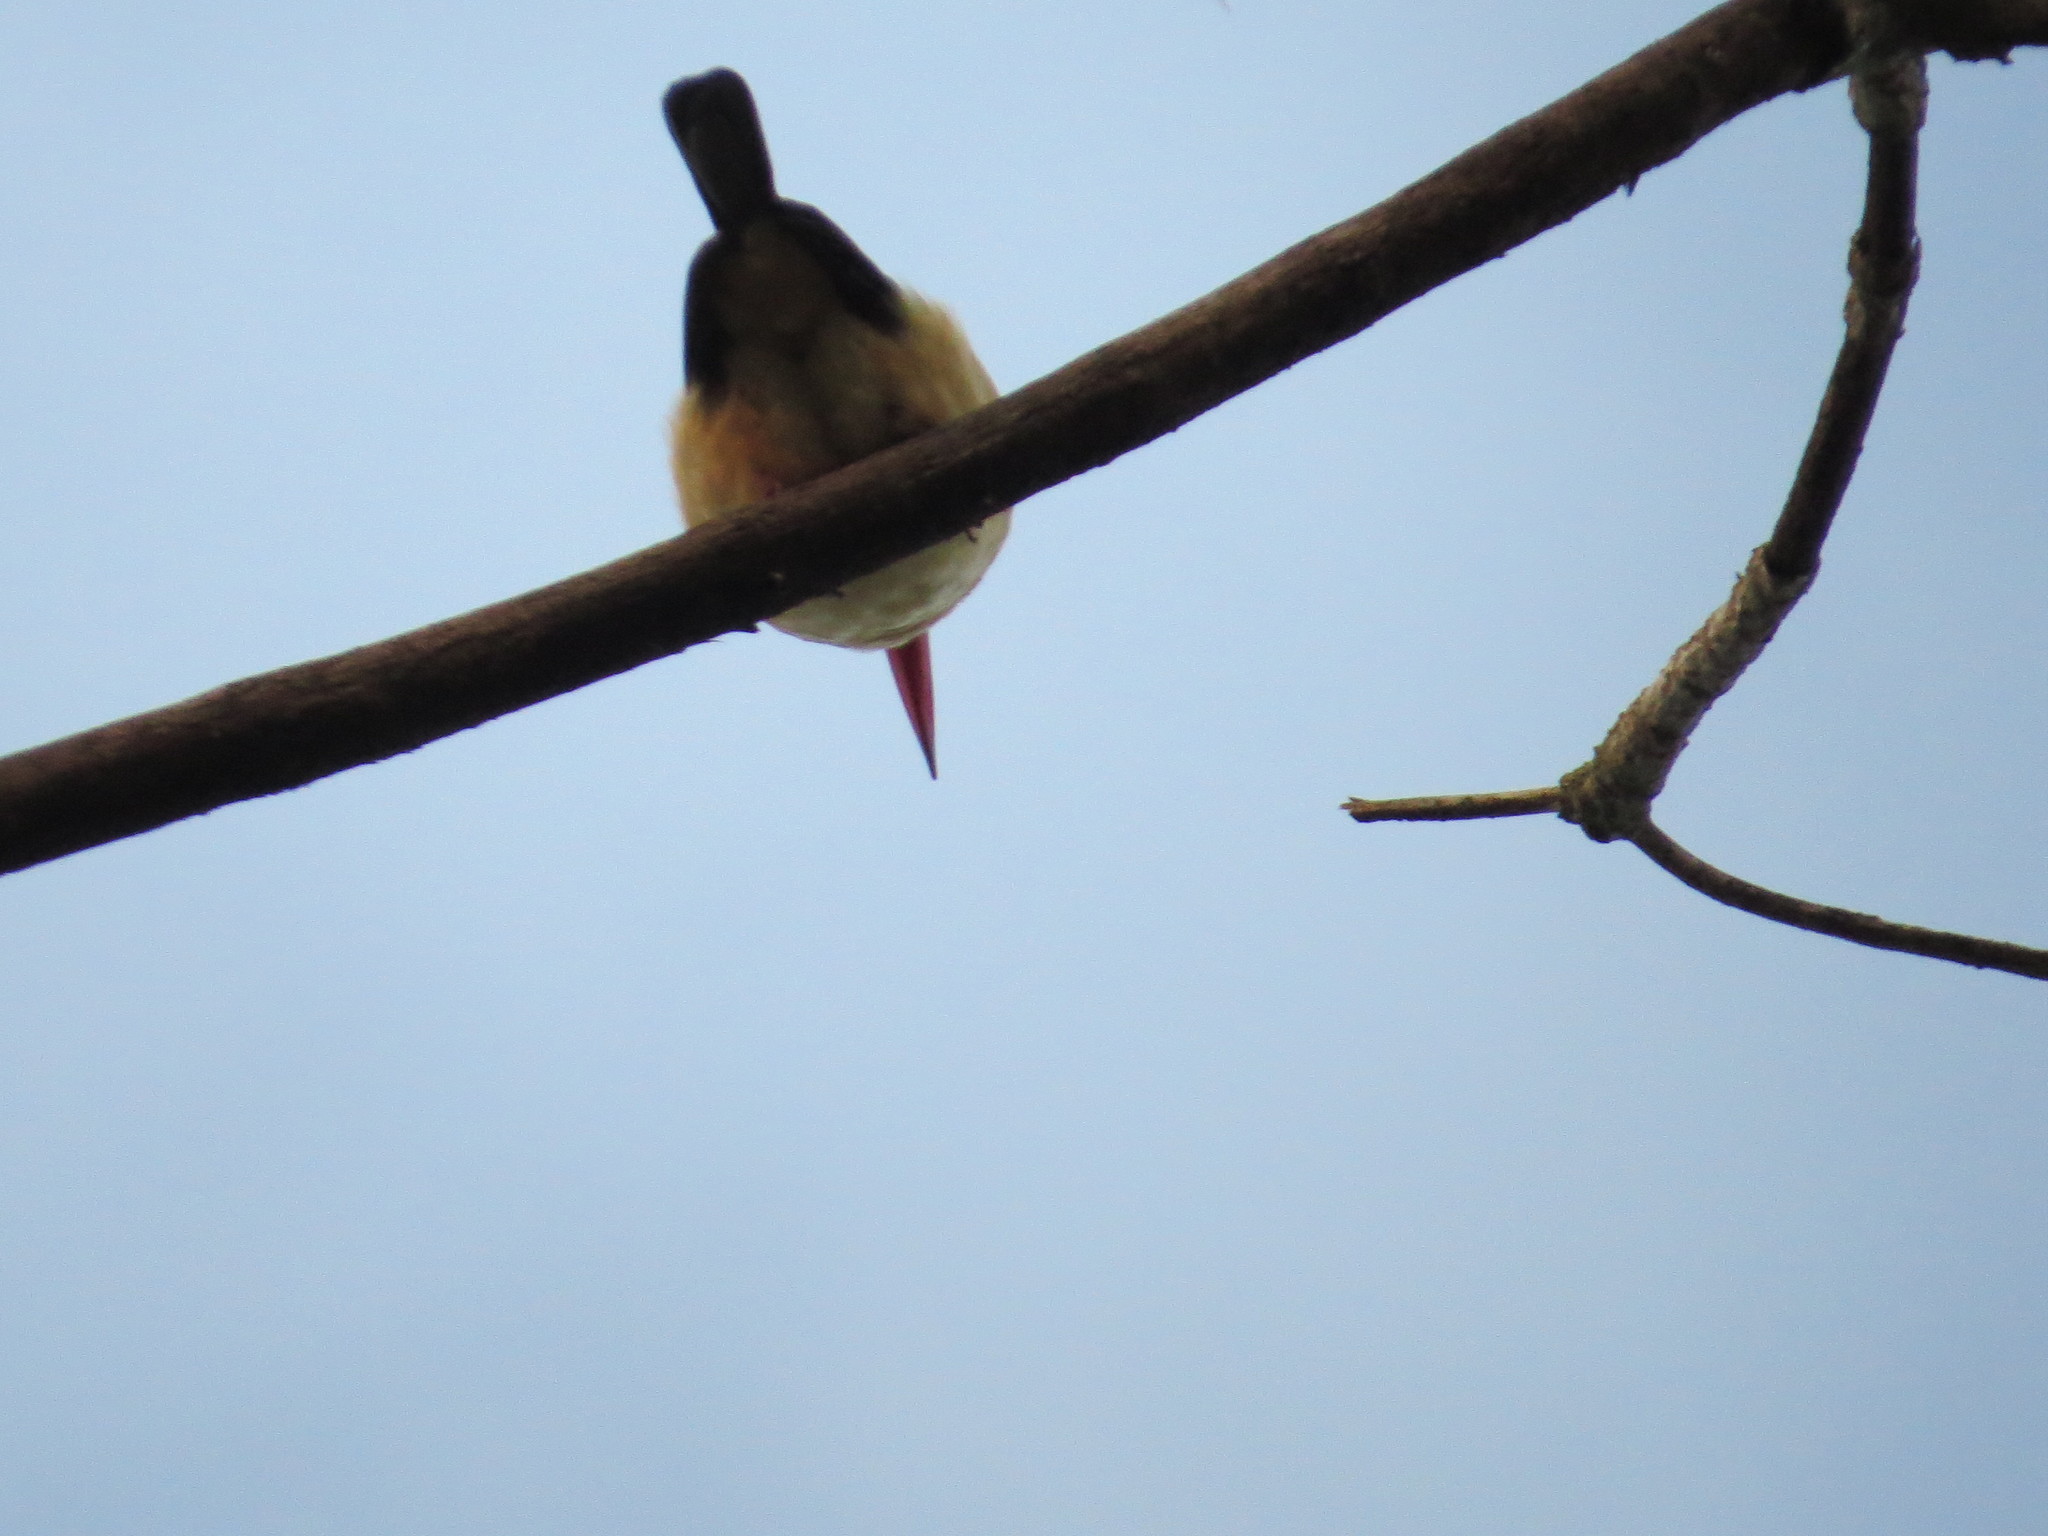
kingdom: Animalia
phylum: Chordata
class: Aves
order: Coraciiformes
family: Alcedinidae
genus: Halcyon
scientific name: Halcyon albiventris
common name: Brown-hooded kingfisher
